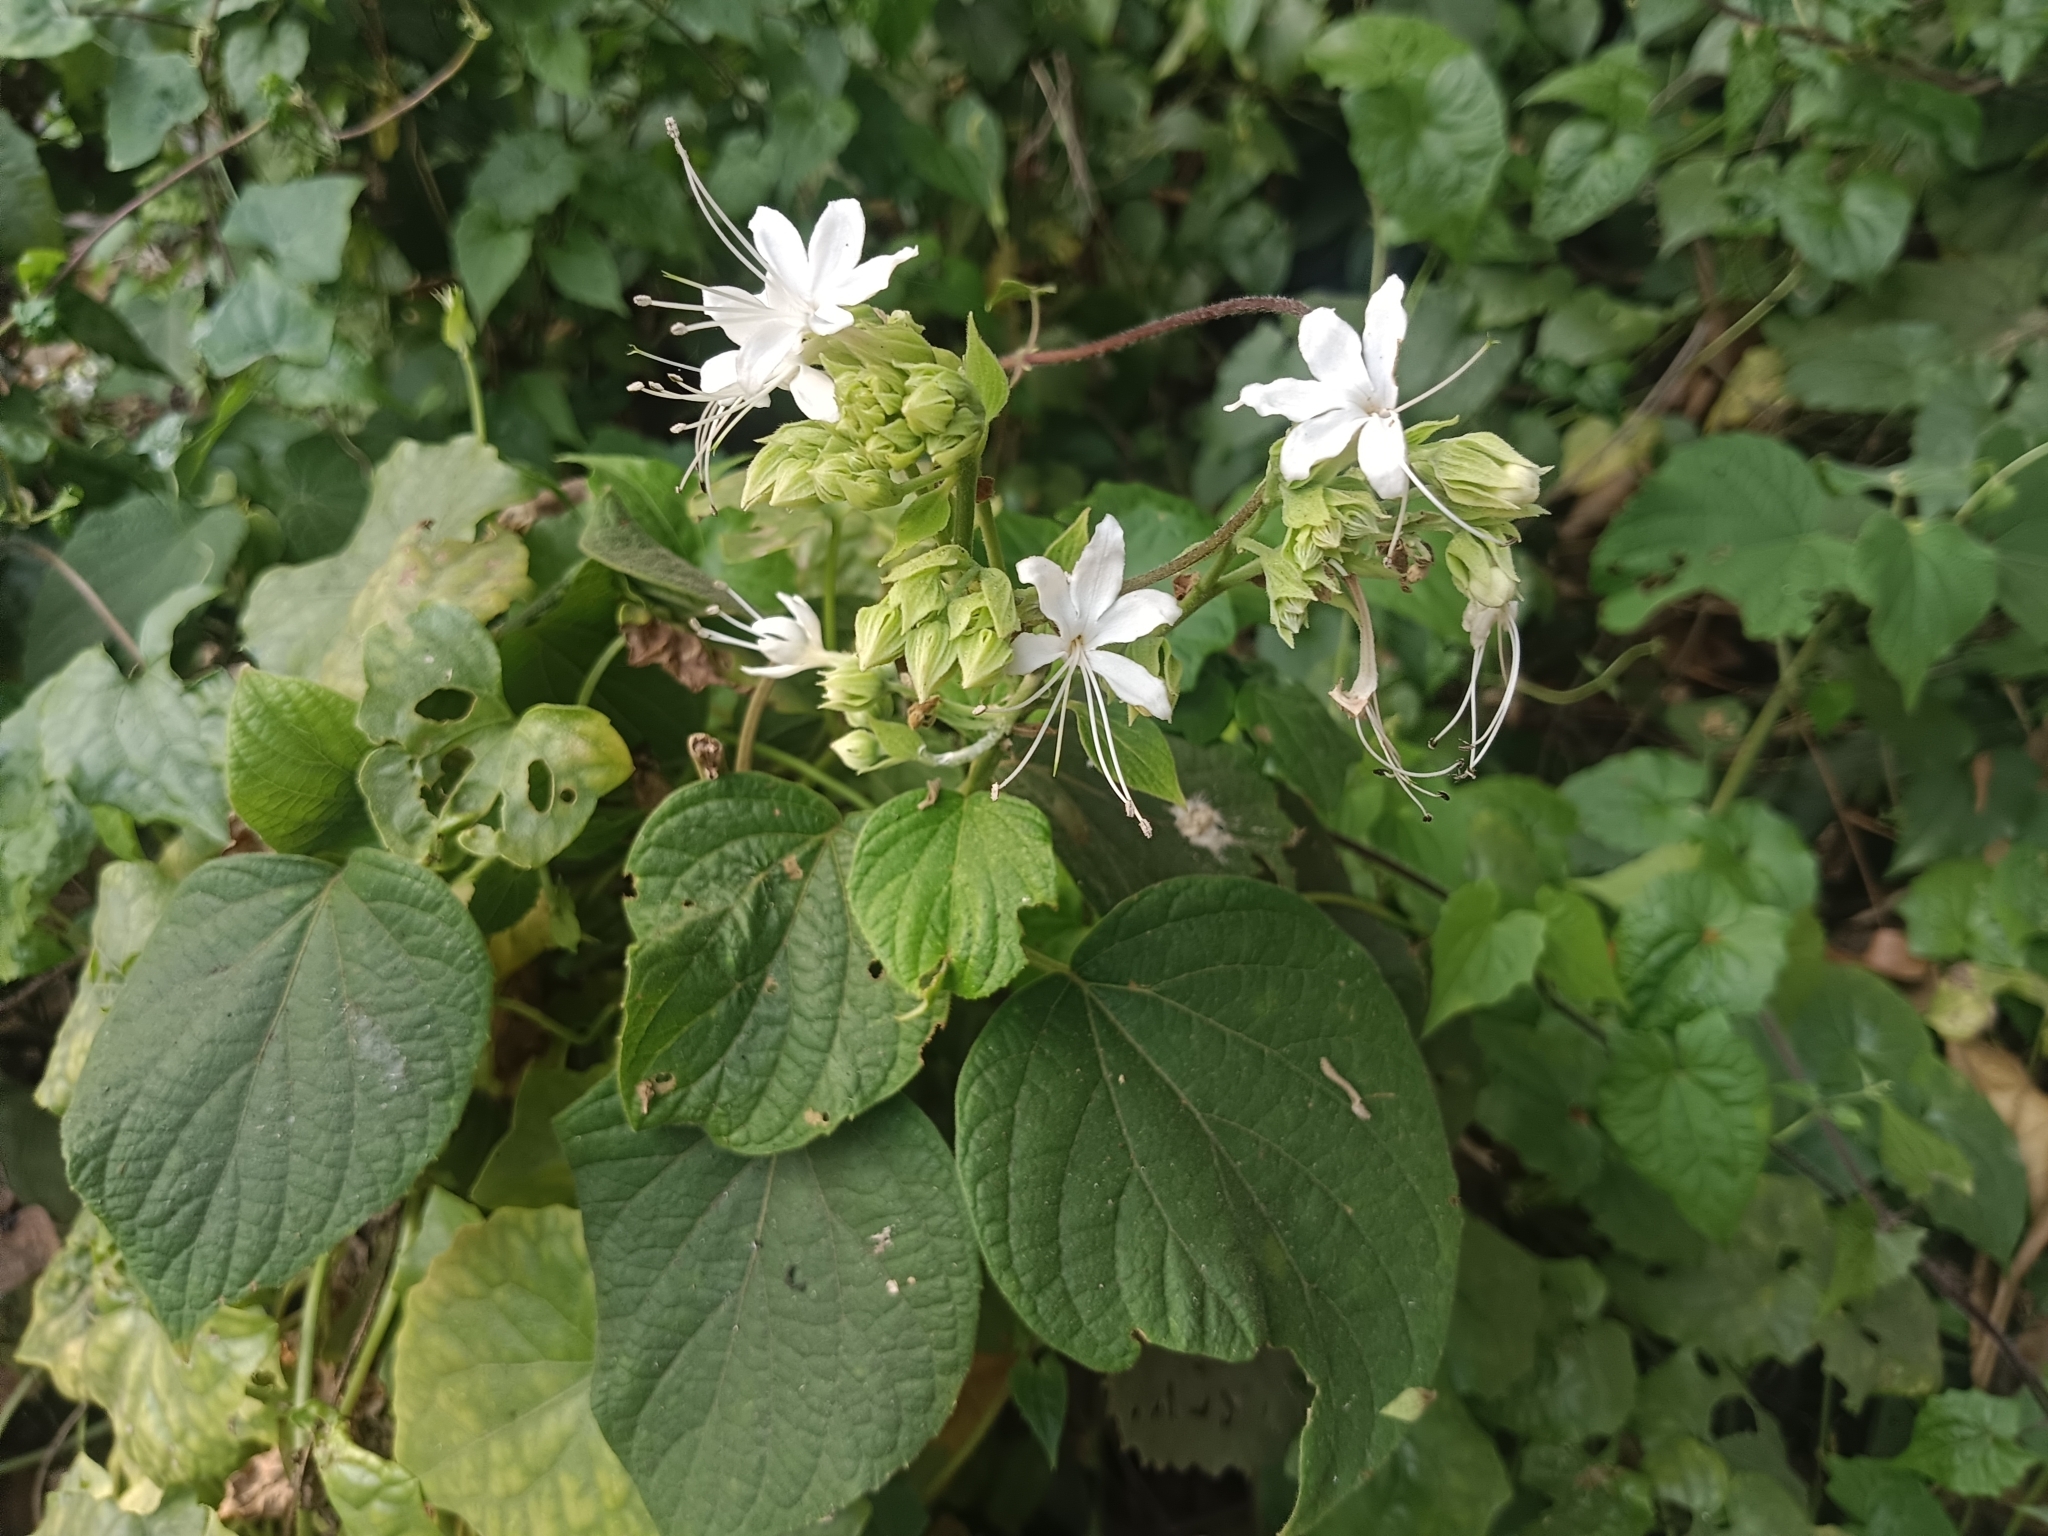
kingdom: Plantae
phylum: Tracheophyta
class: Magnoliopsida
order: Lamiales
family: Lamiaceae
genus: Clerodendrum
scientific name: Clerodendrum infortunatum
